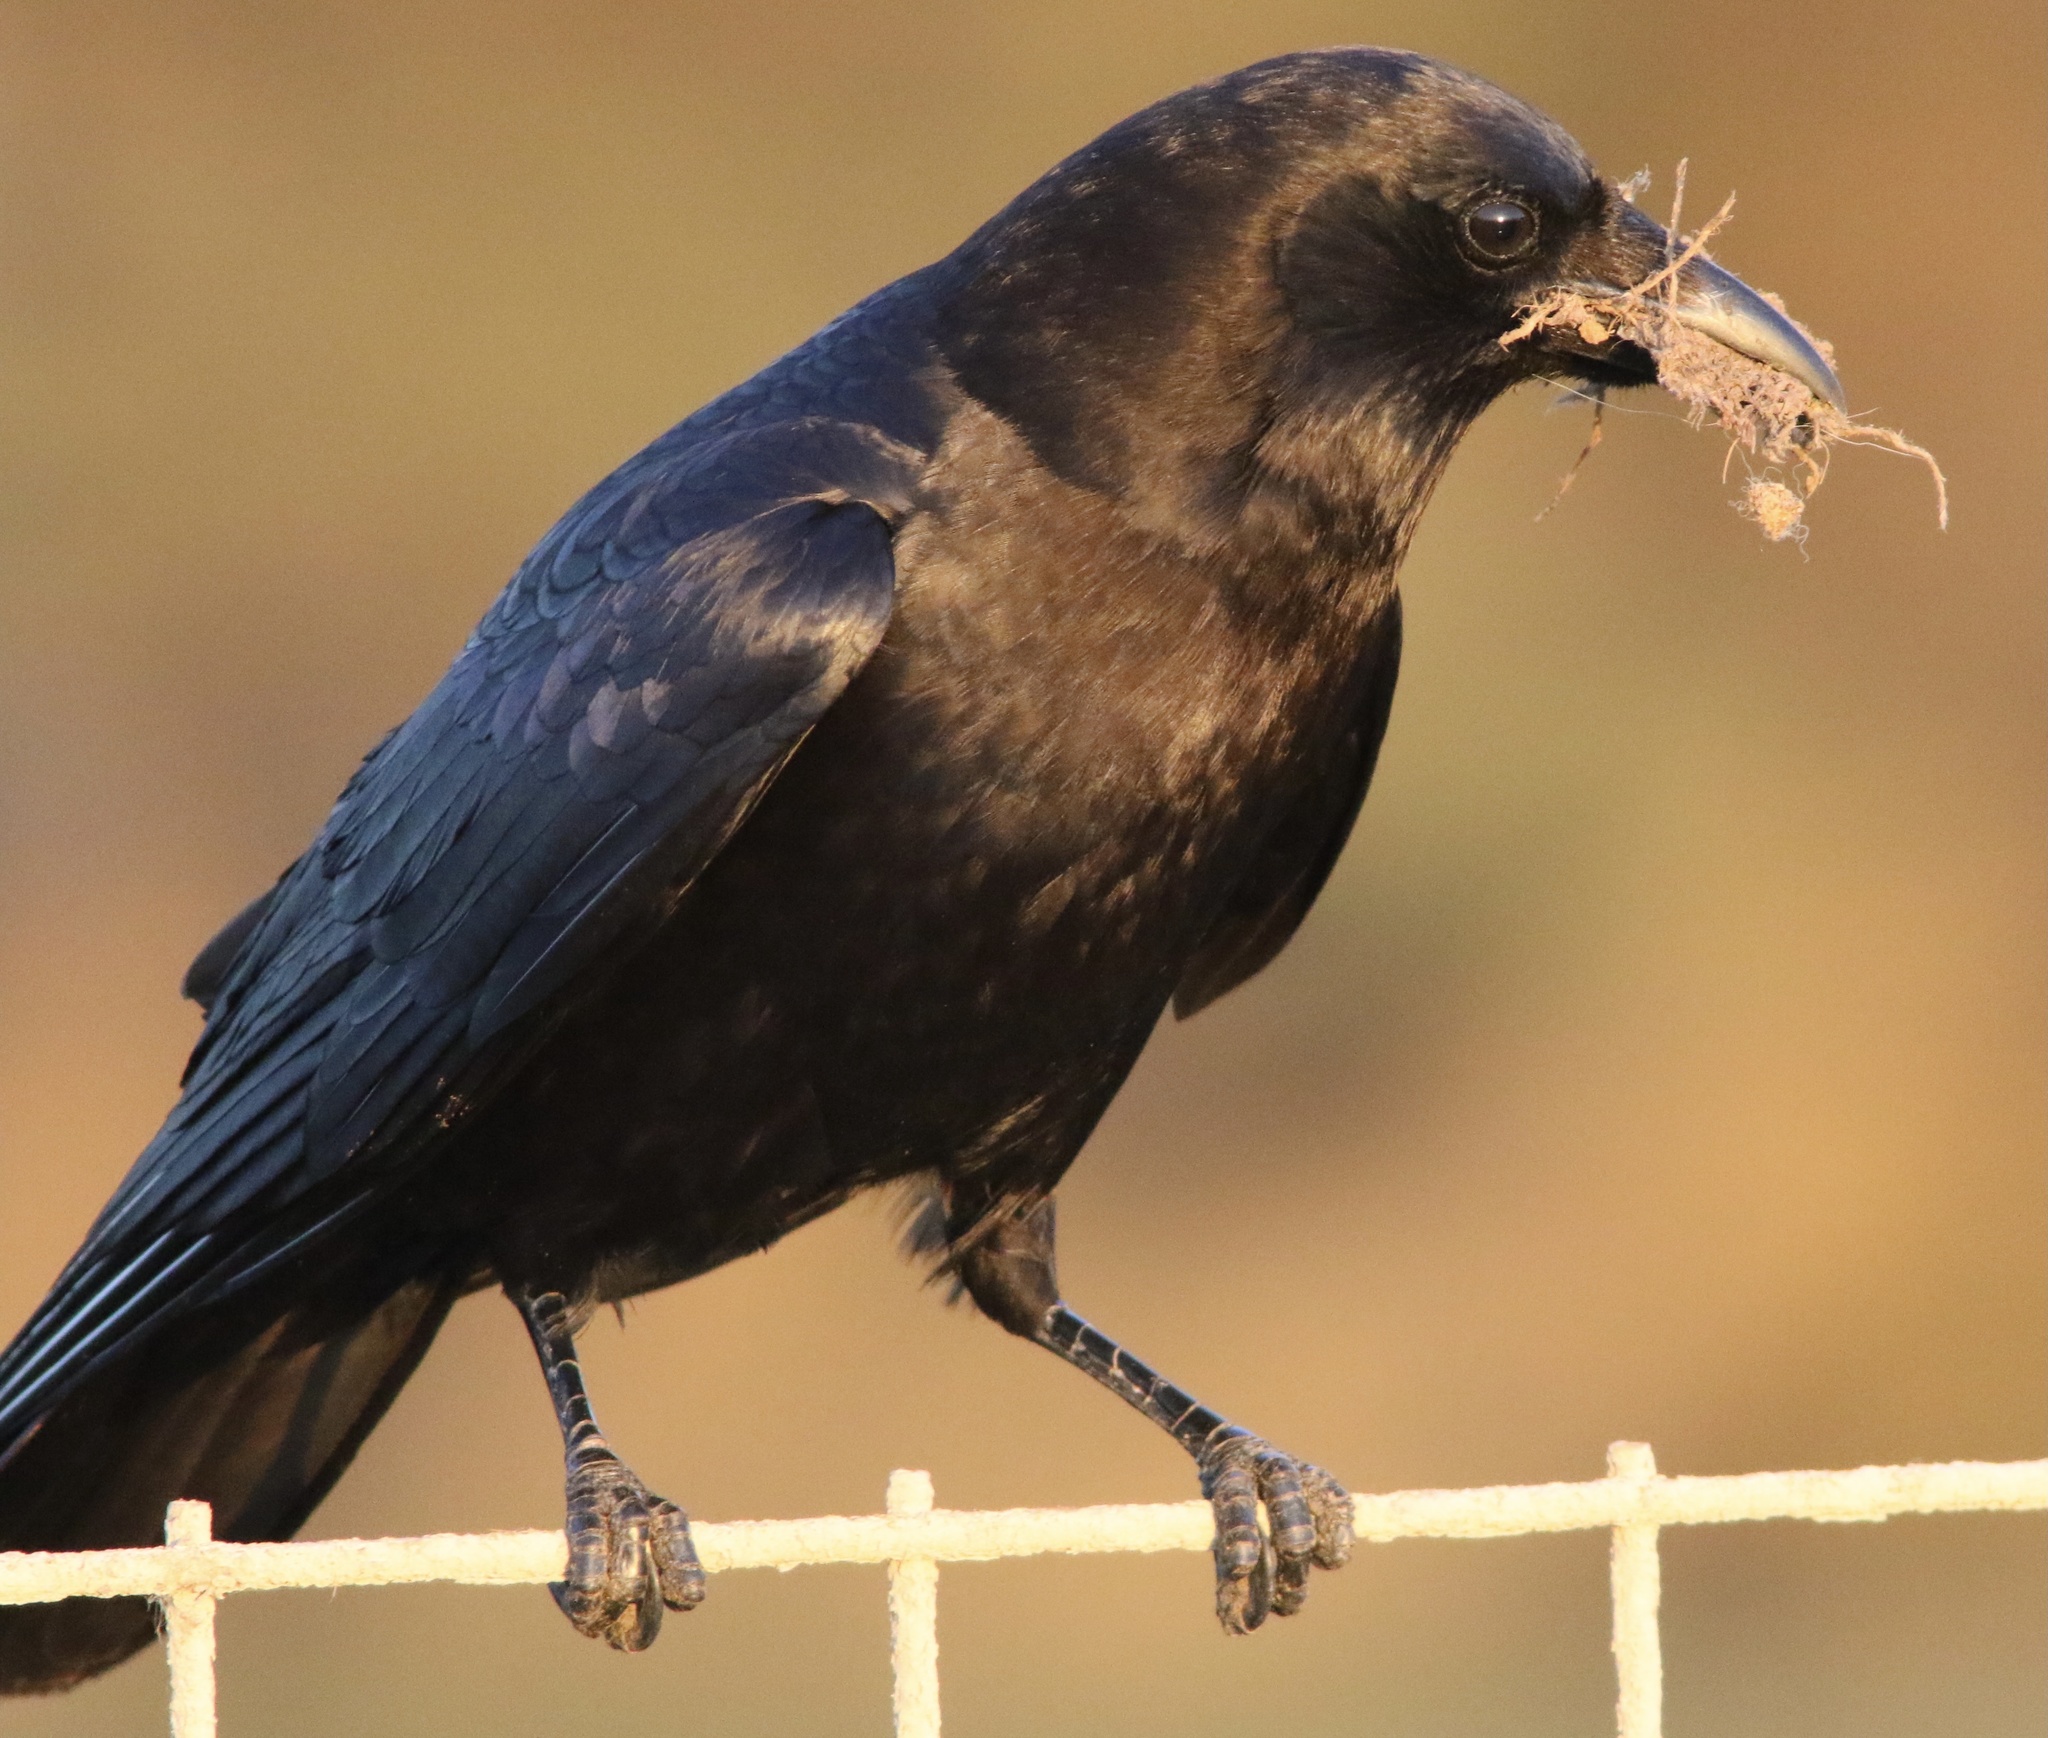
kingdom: Animalia
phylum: Chordata
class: Aves
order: Passeriformes
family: Corvidae
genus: Corvus
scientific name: Corvus brachyrhynchos
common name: American crow
